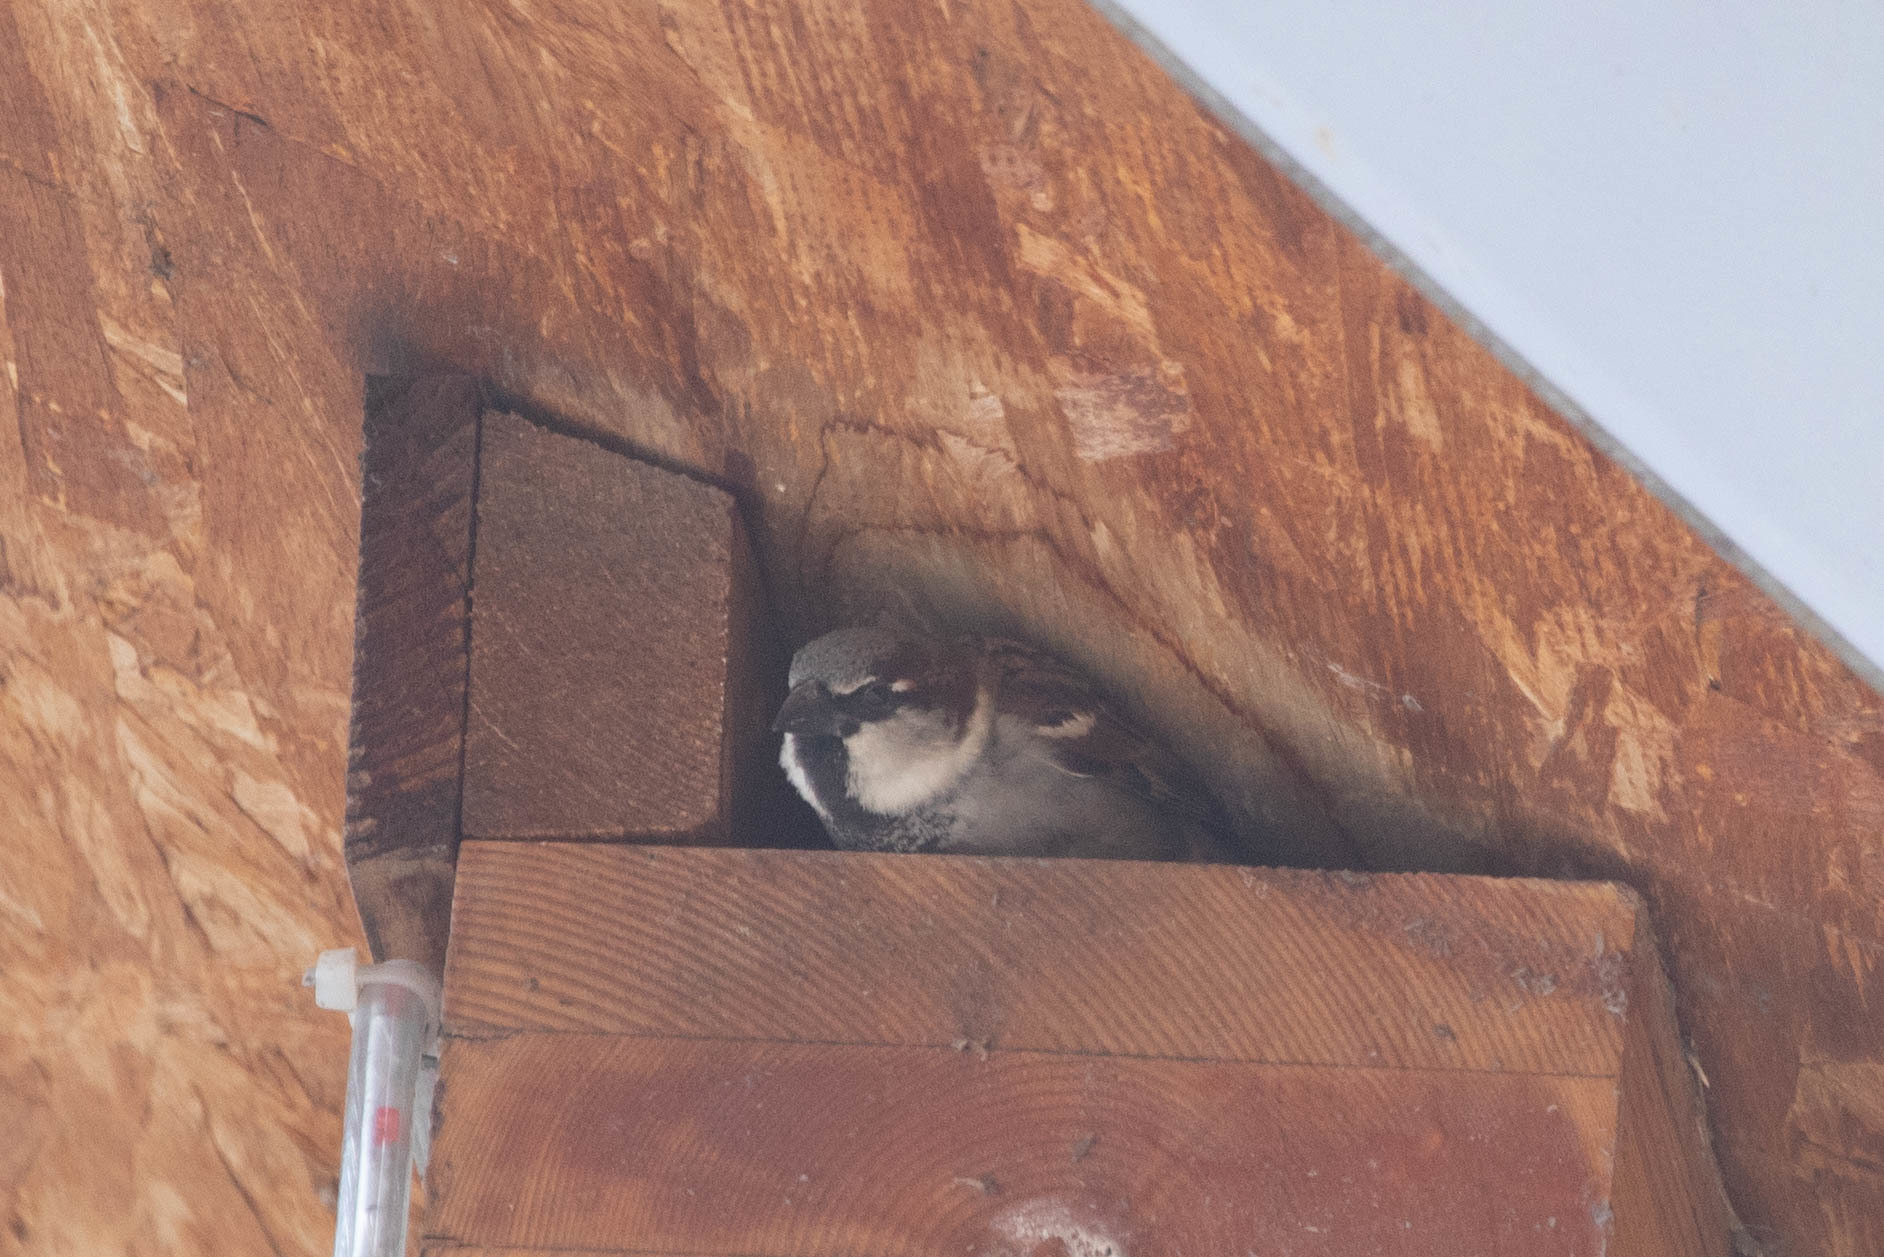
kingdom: Animalia
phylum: Chordata
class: Aves
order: Passeriformes
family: Passeridae
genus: Passer
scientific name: Passer domesticus
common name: House sparrow
